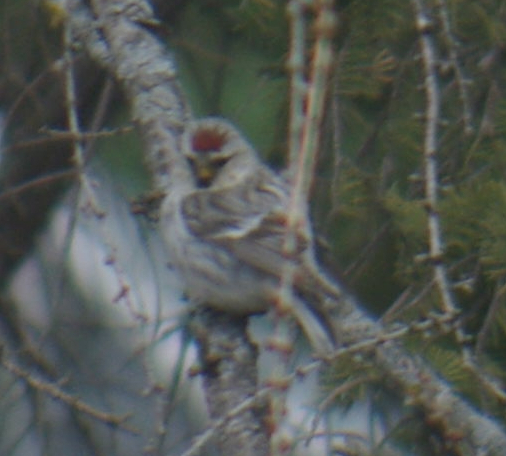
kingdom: Animalia
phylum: Chordata
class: Aves
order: Passeriformes
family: Fringillidae
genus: Acanthis
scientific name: Acanthis flammea
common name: Common redpoll
